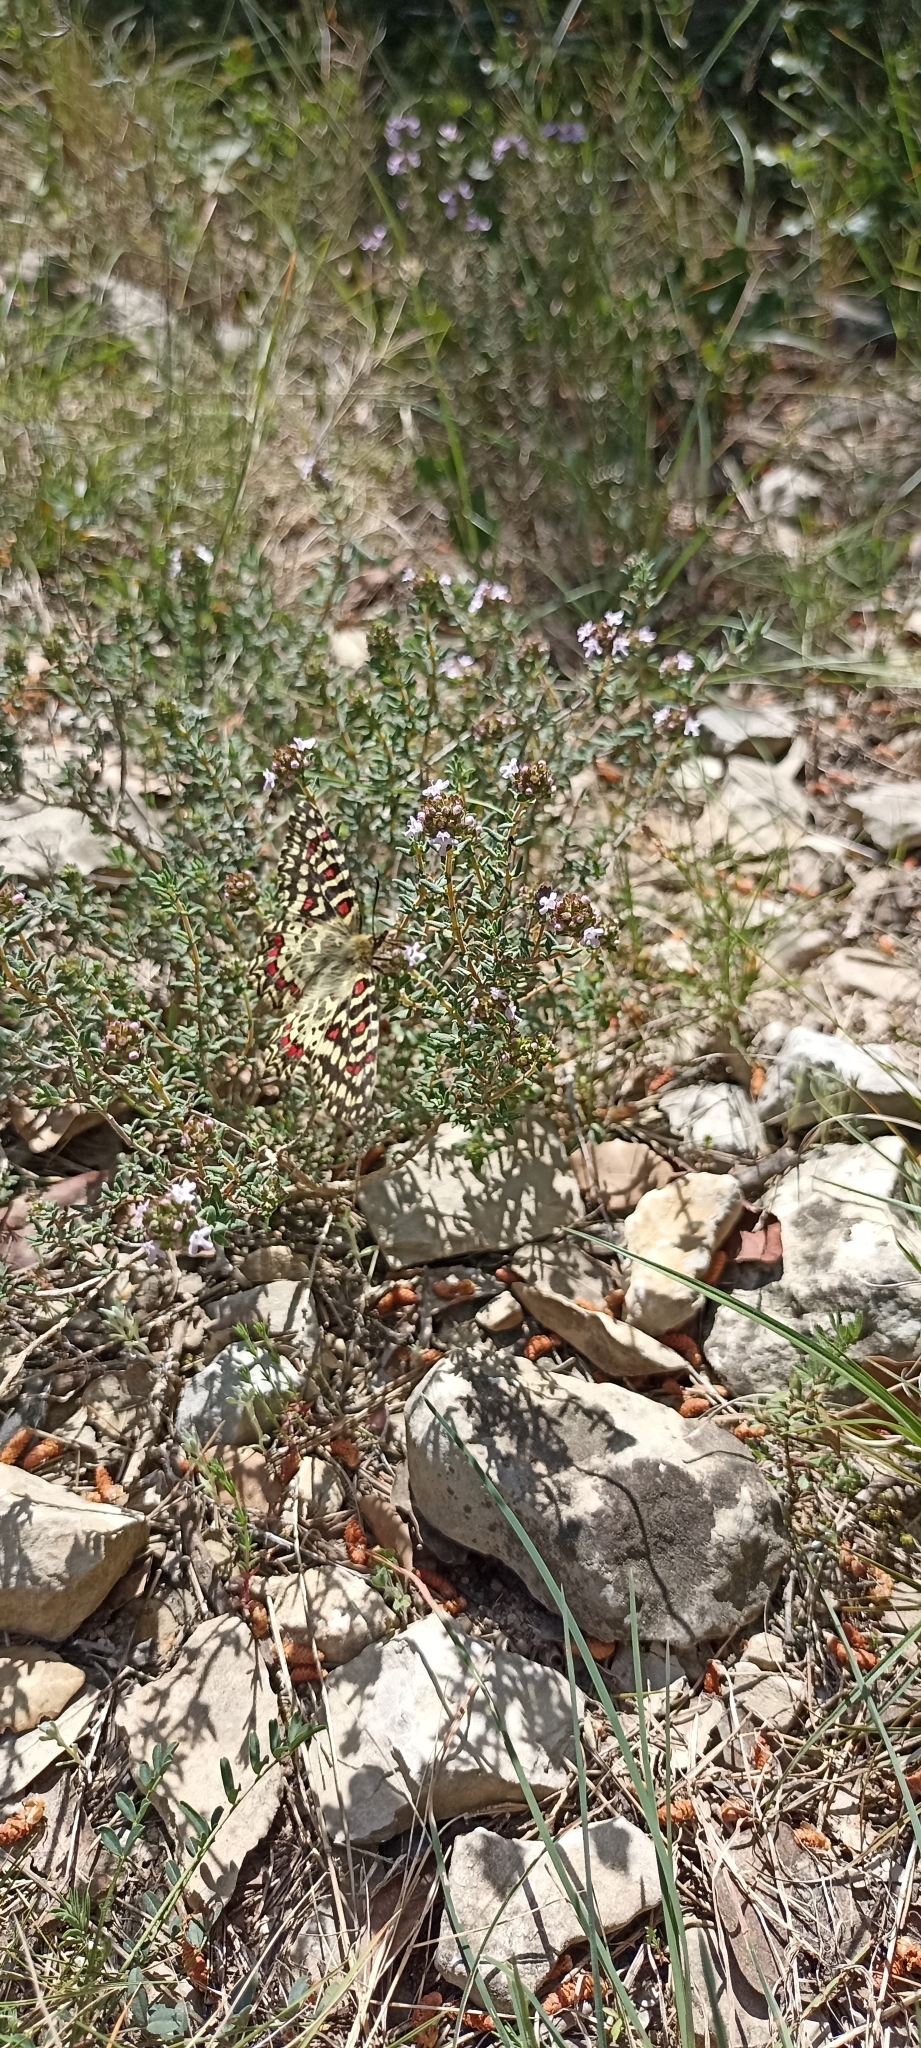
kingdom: Animalia
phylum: Arthropoda
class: Insecta
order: Lepidoptera
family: Papilionidae
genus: Zerynthia
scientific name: Zerynthia rumina
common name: Spanish festoon
